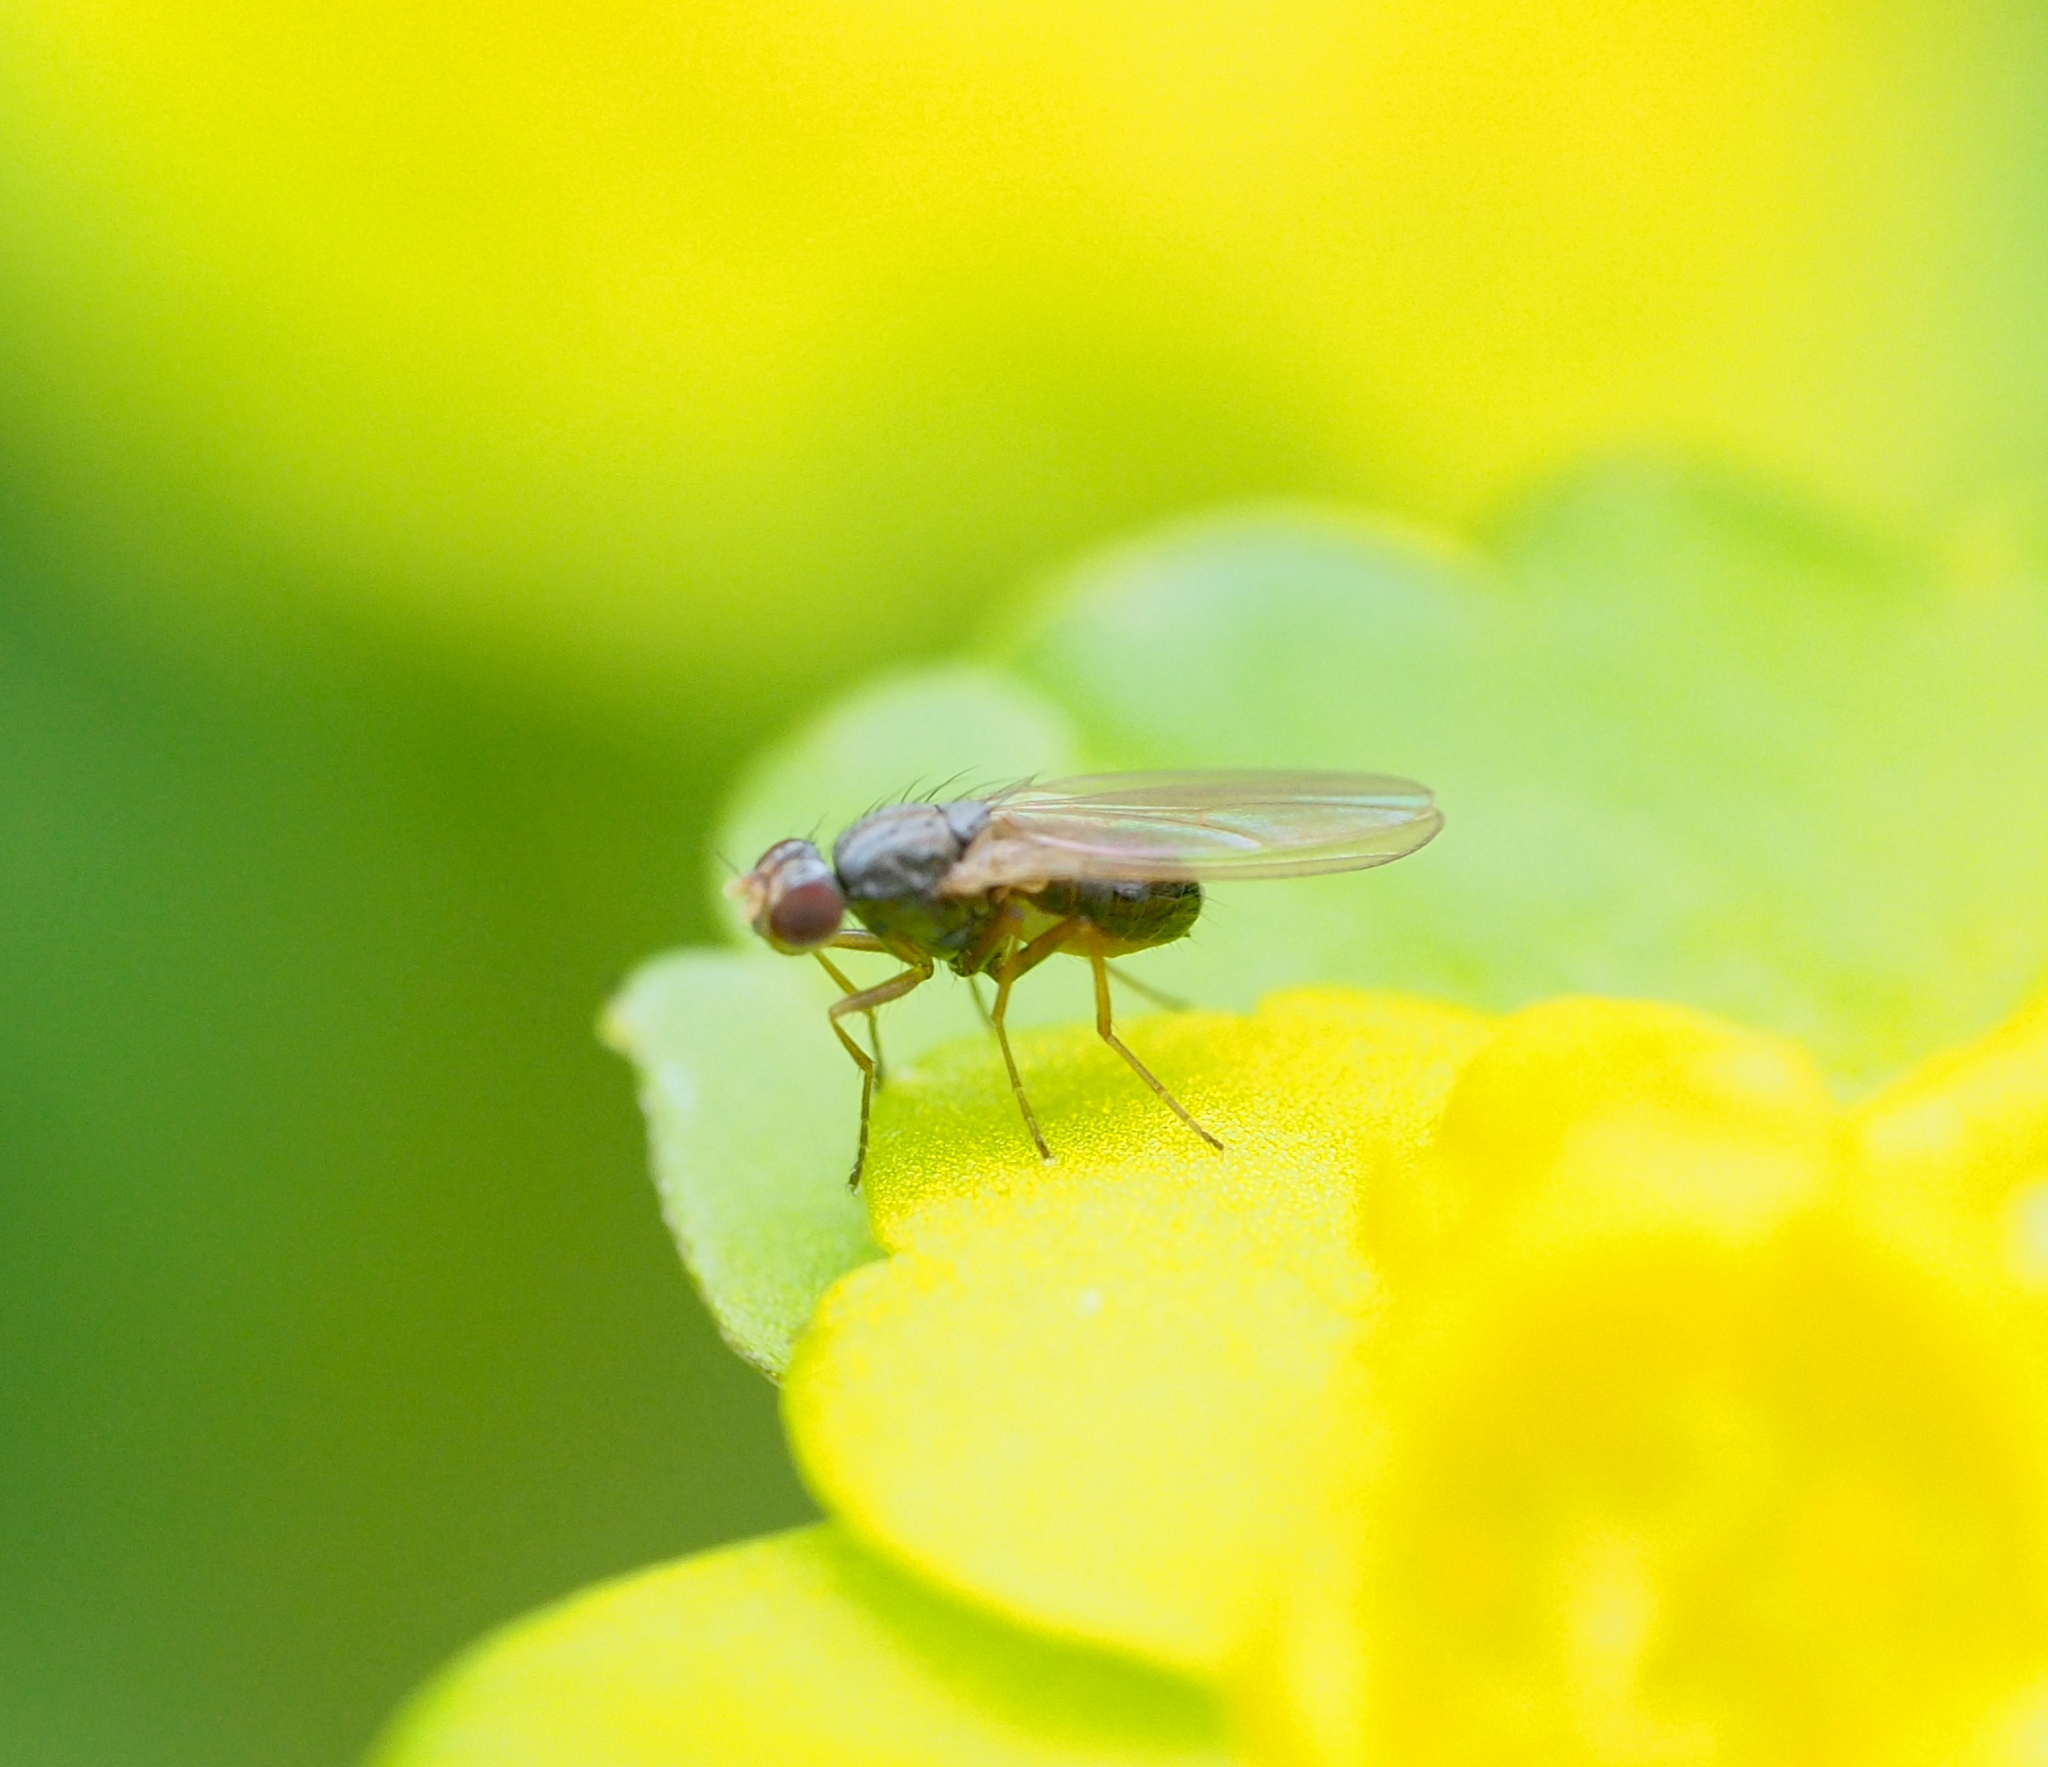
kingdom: Animalia
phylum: Arthropoda
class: Insecta
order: Diptera
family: Drosophilidae
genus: Scaptomyza
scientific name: Scaptomyza pallida
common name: Pomace fly
